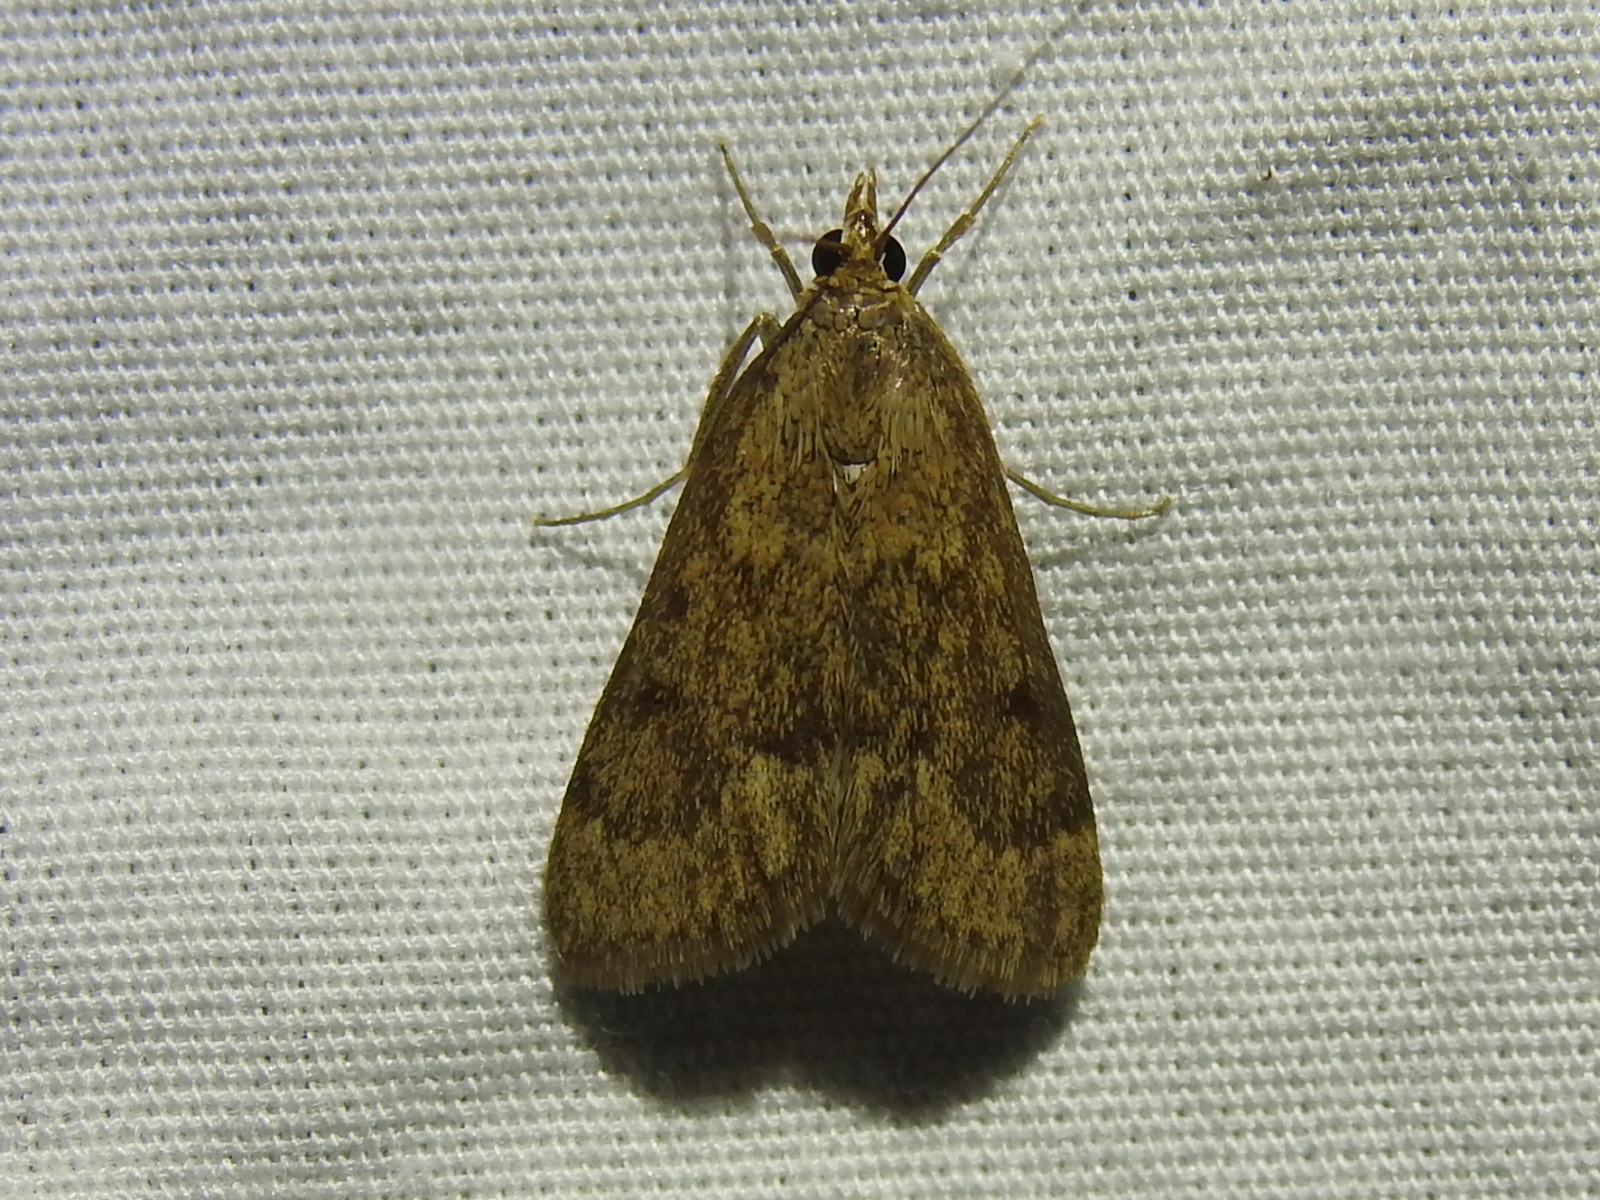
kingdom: Animalia
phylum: Arthropoda
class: Insecta
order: Lepidoptera
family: Crambidae
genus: Achyra
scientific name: Achyra rantalis
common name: Garden webworm
